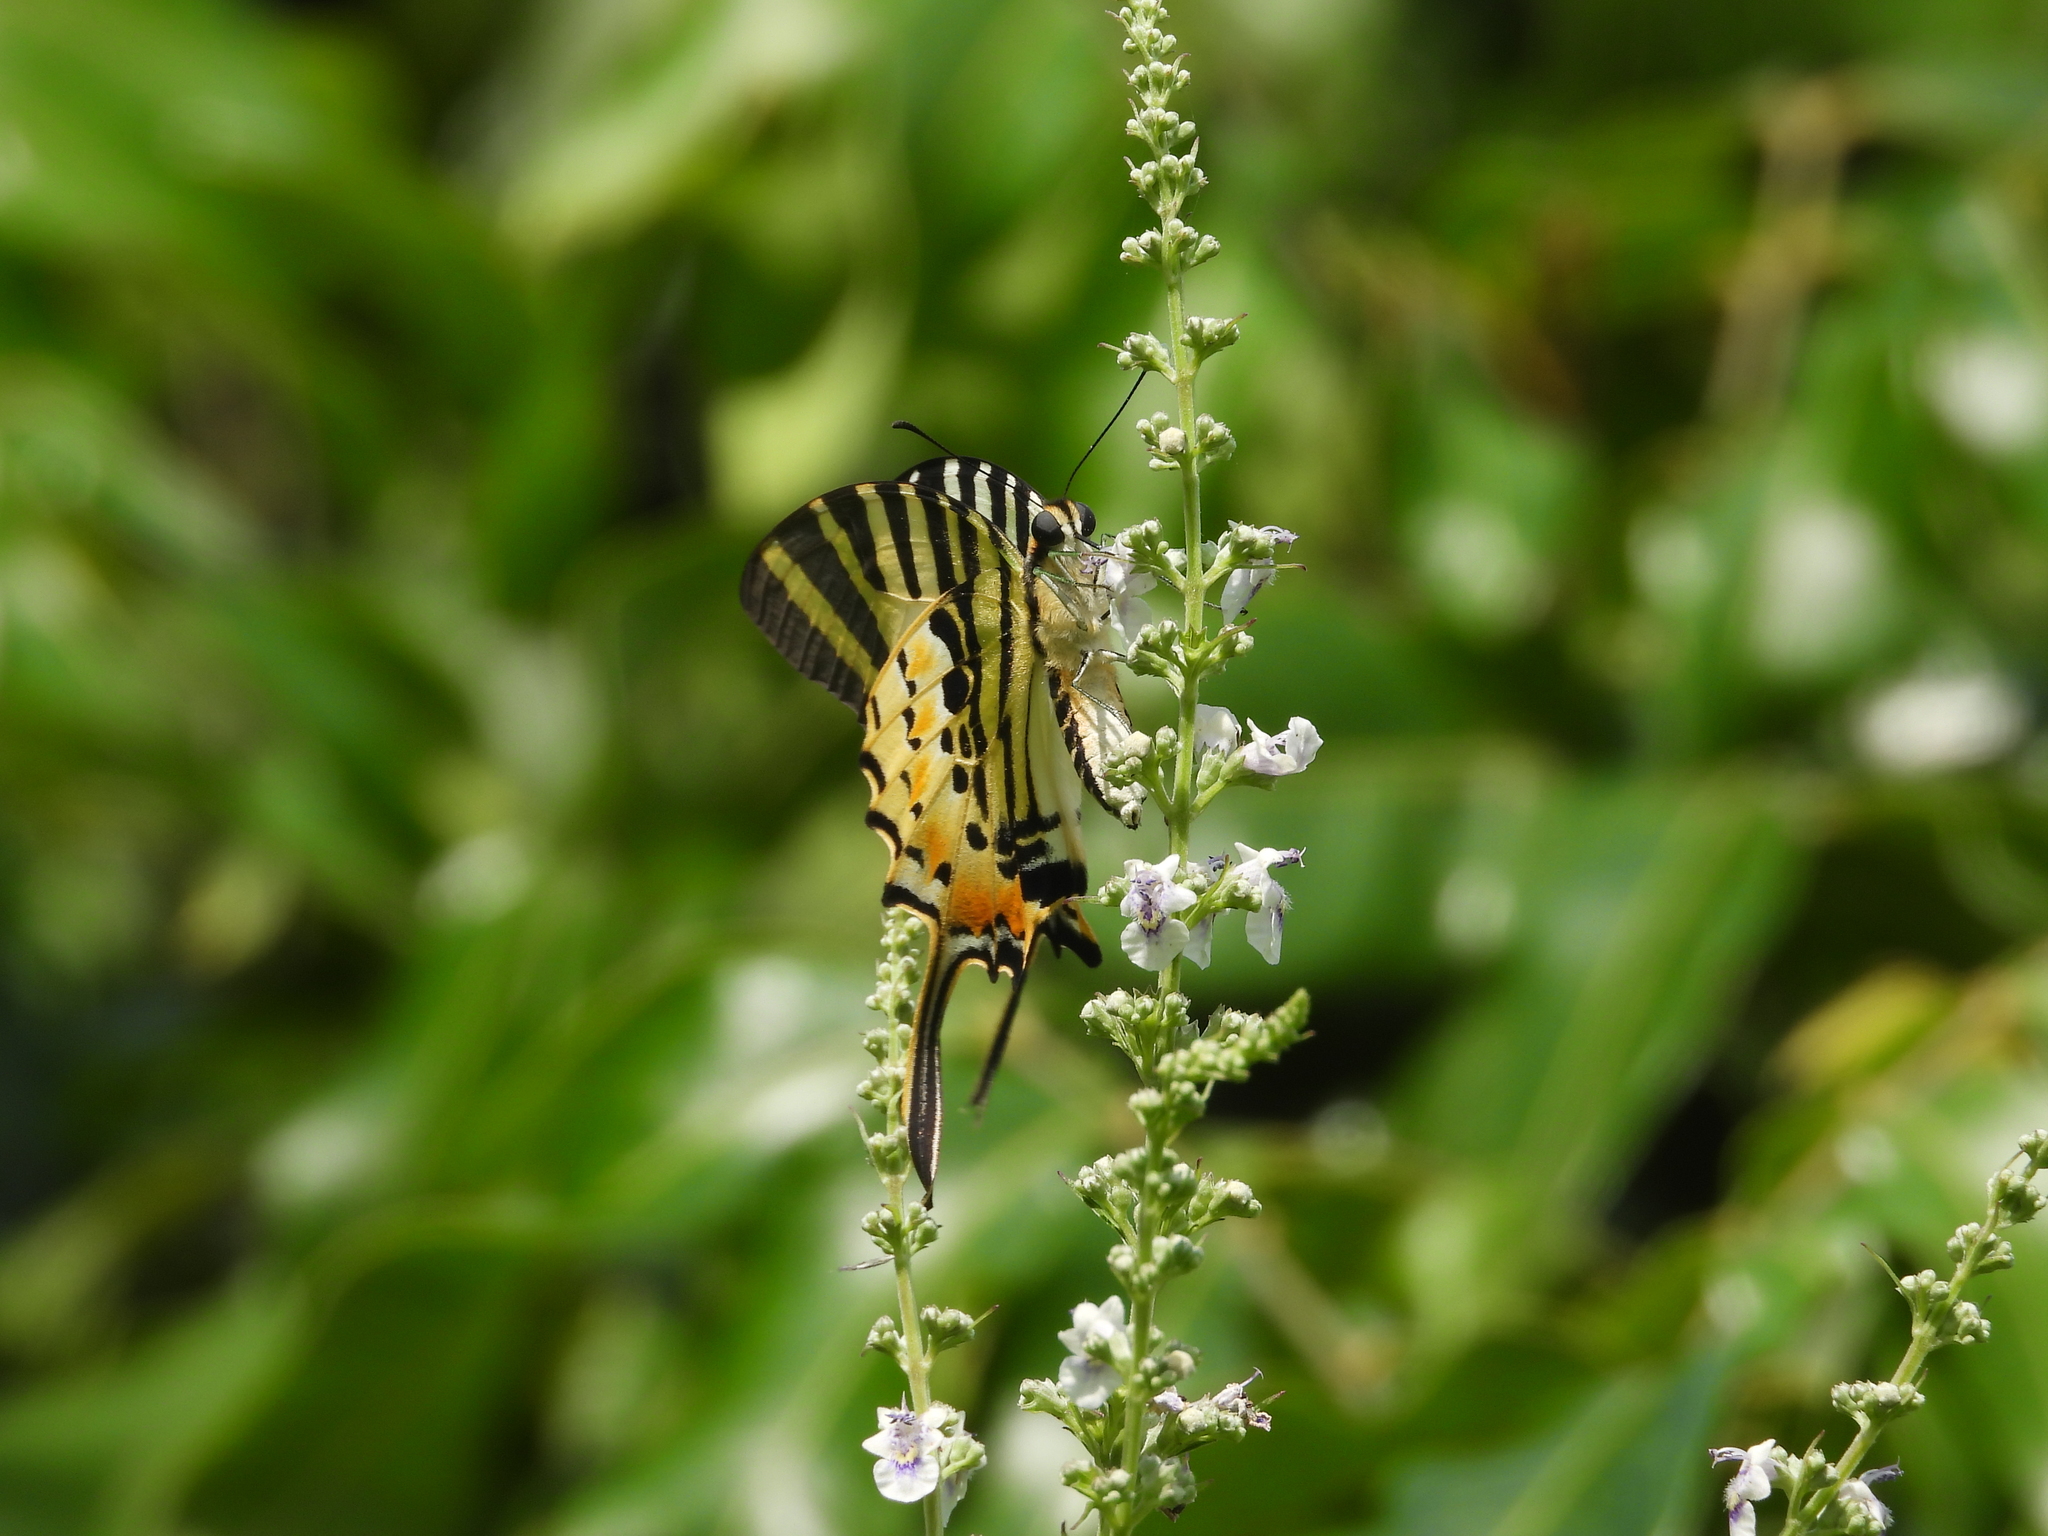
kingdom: Animalia
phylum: Arthropoda
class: Insecta
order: Lepidoptera
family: Papilionidae
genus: Graphium
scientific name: Graphium antiphates
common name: Fivebar swordtail
